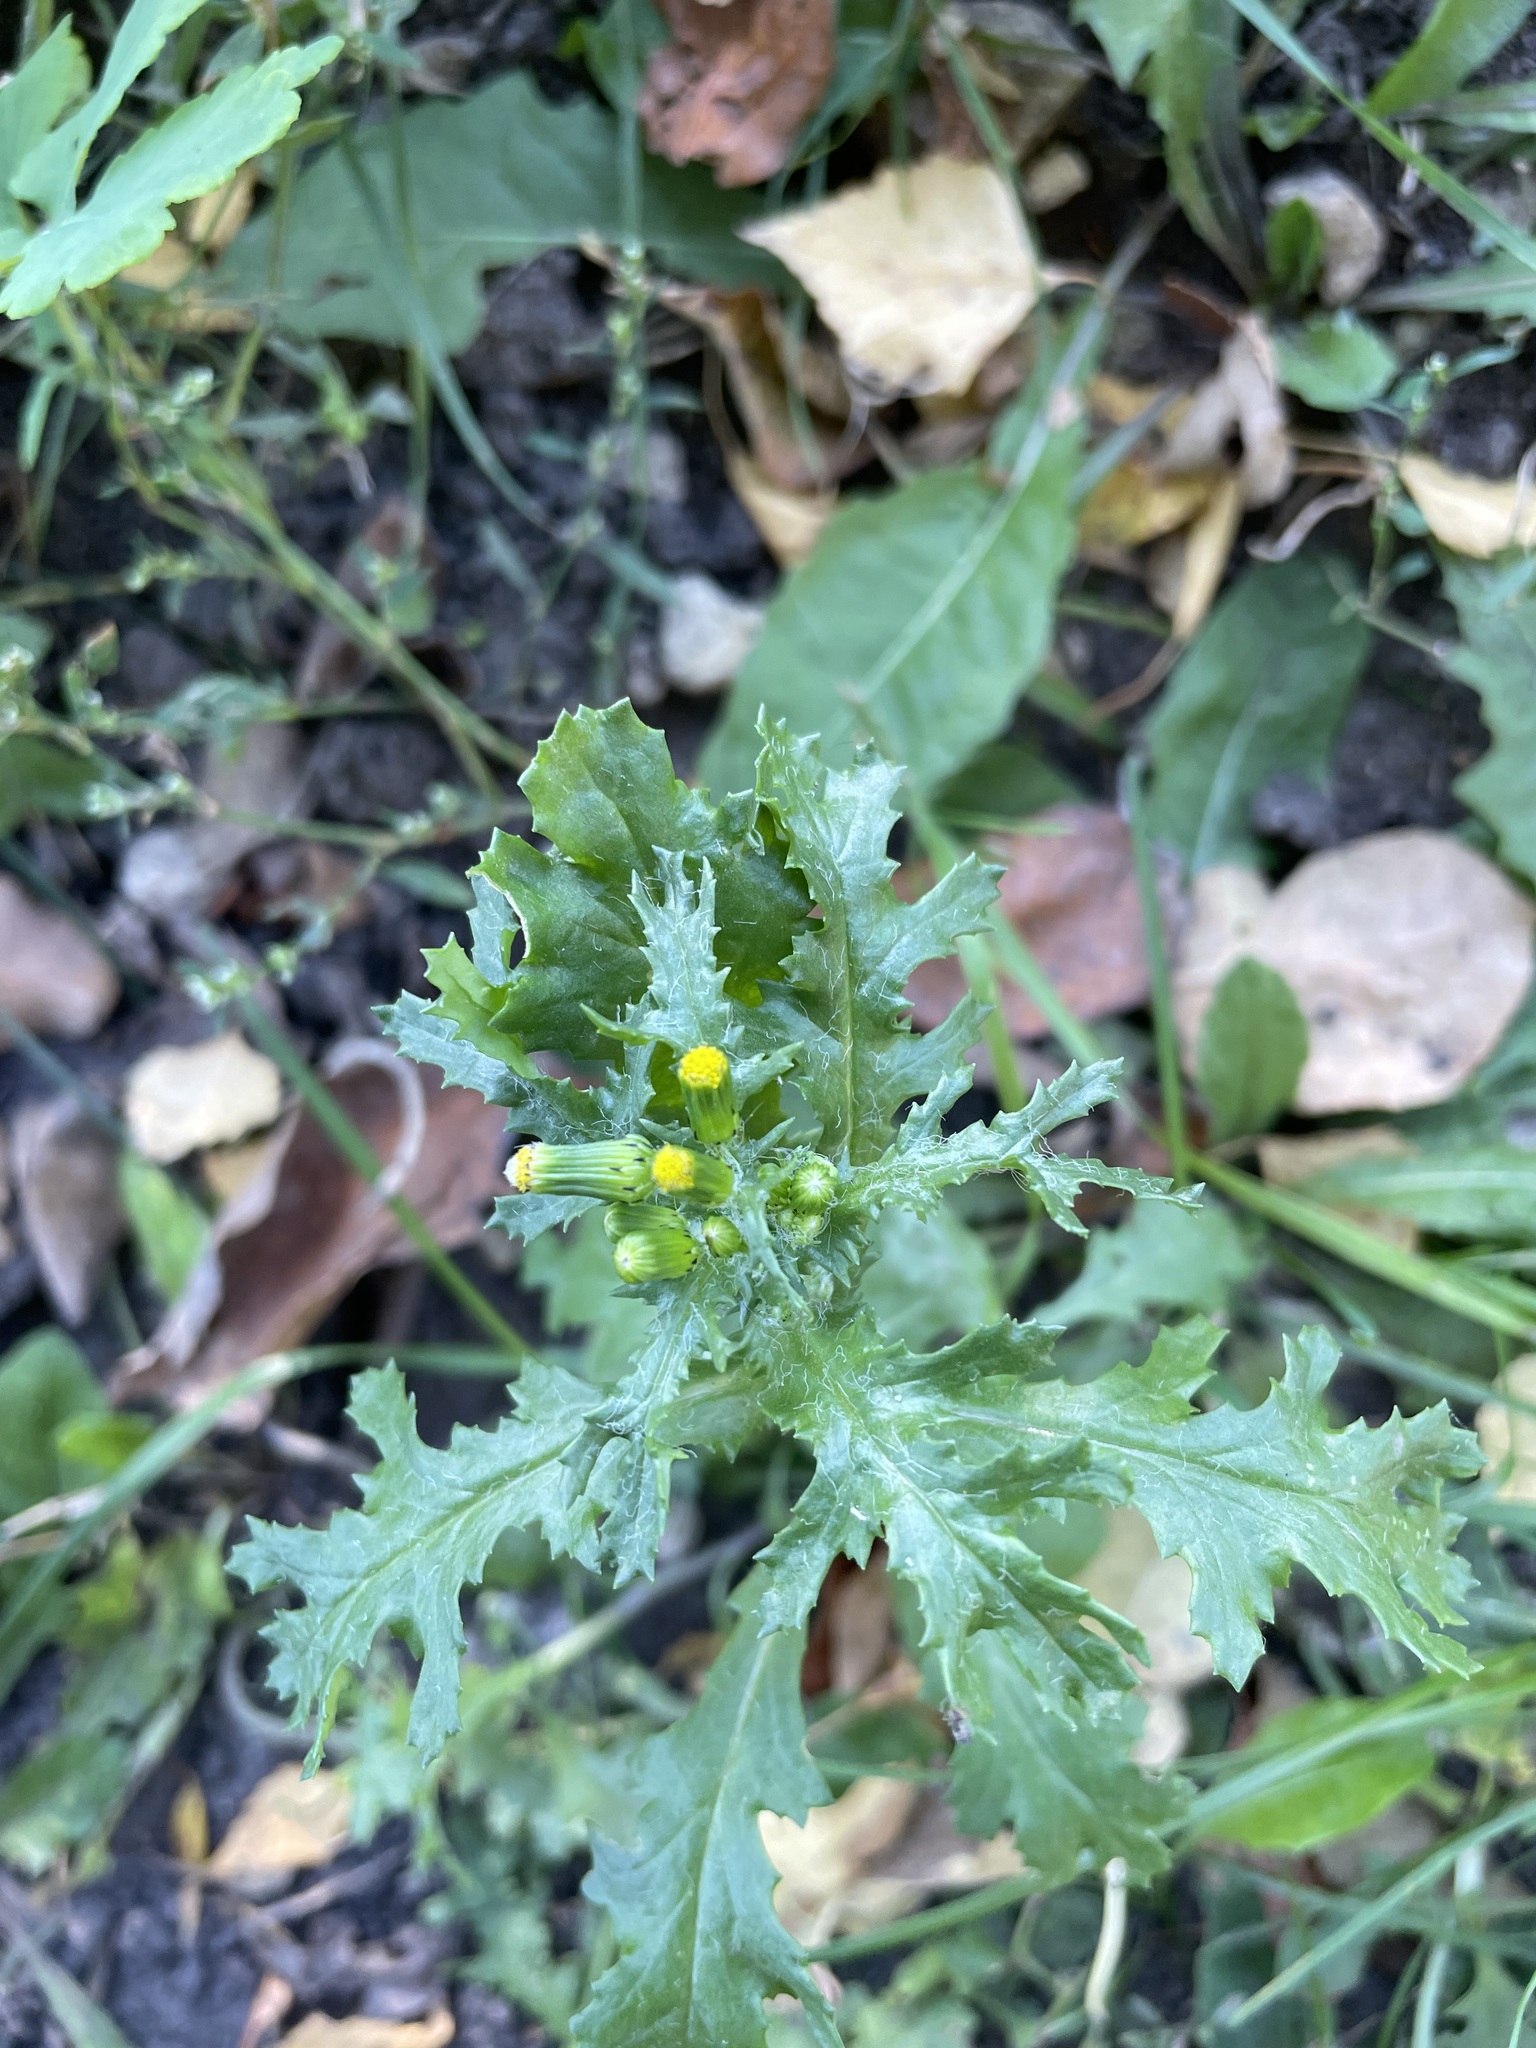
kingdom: Plantae
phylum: Tracheophyta
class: Magnoliopsida
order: Asterales
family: Asteraceae
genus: Senecio
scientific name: Senecio vulgaris
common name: Old-man-in-the-spring
